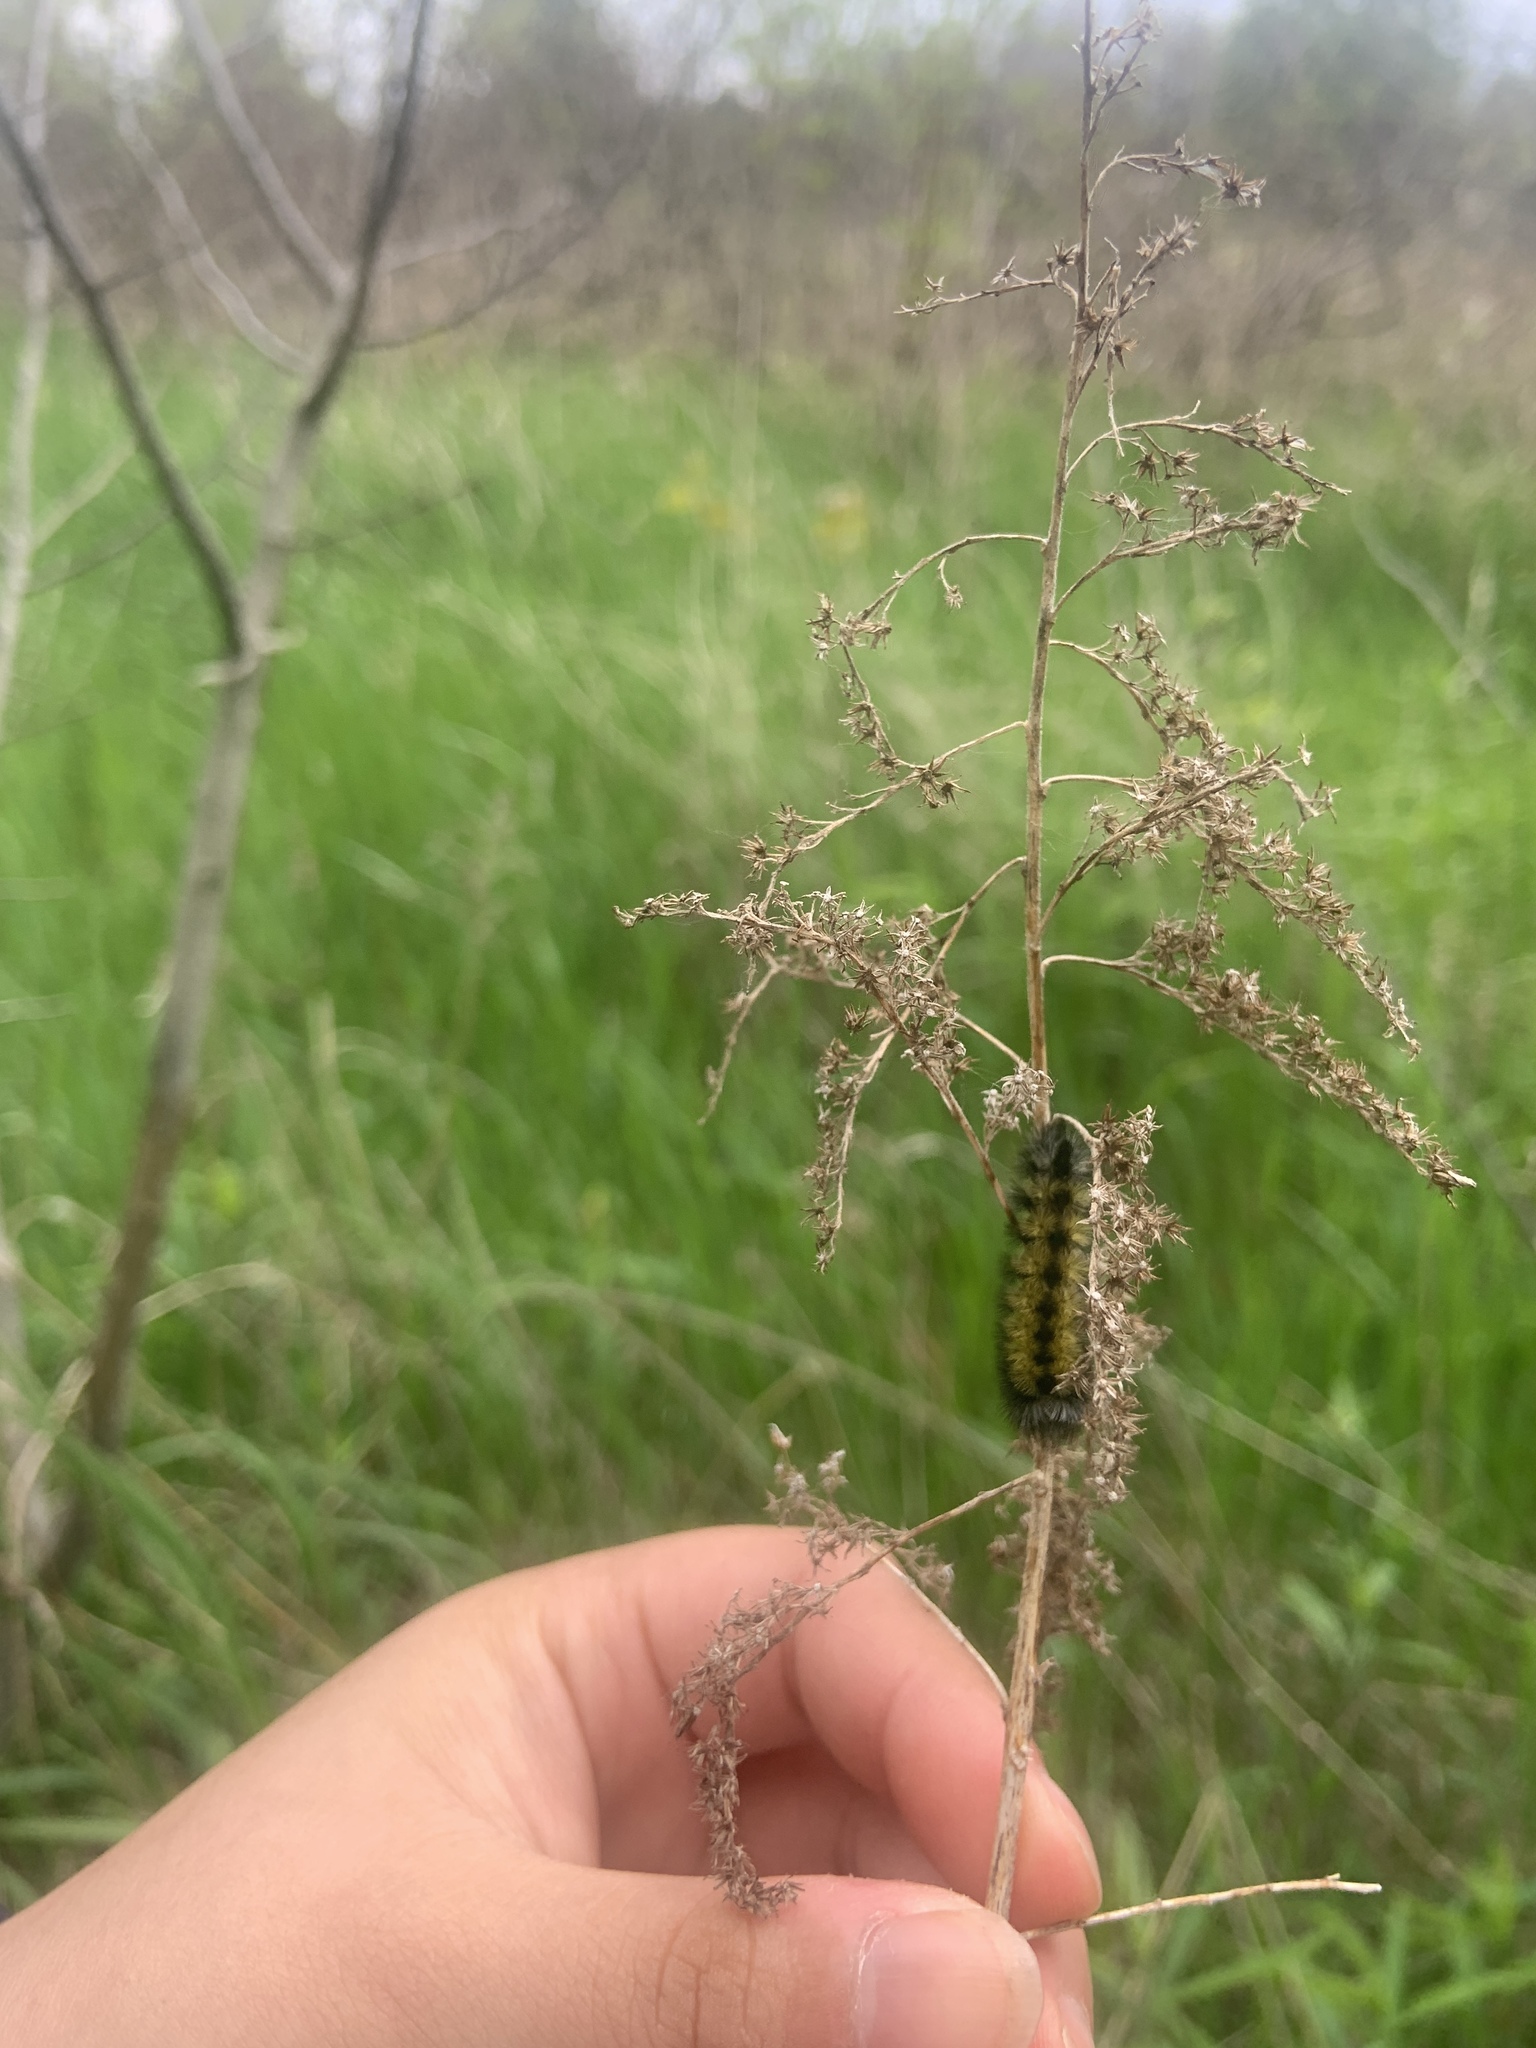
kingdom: Animalia
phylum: Arthropoda
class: Insecta
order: Lepidoptera
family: Erebidae
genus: Ctenucha
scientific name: Ctenucha virginica
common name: Virginia ctenucha moth
